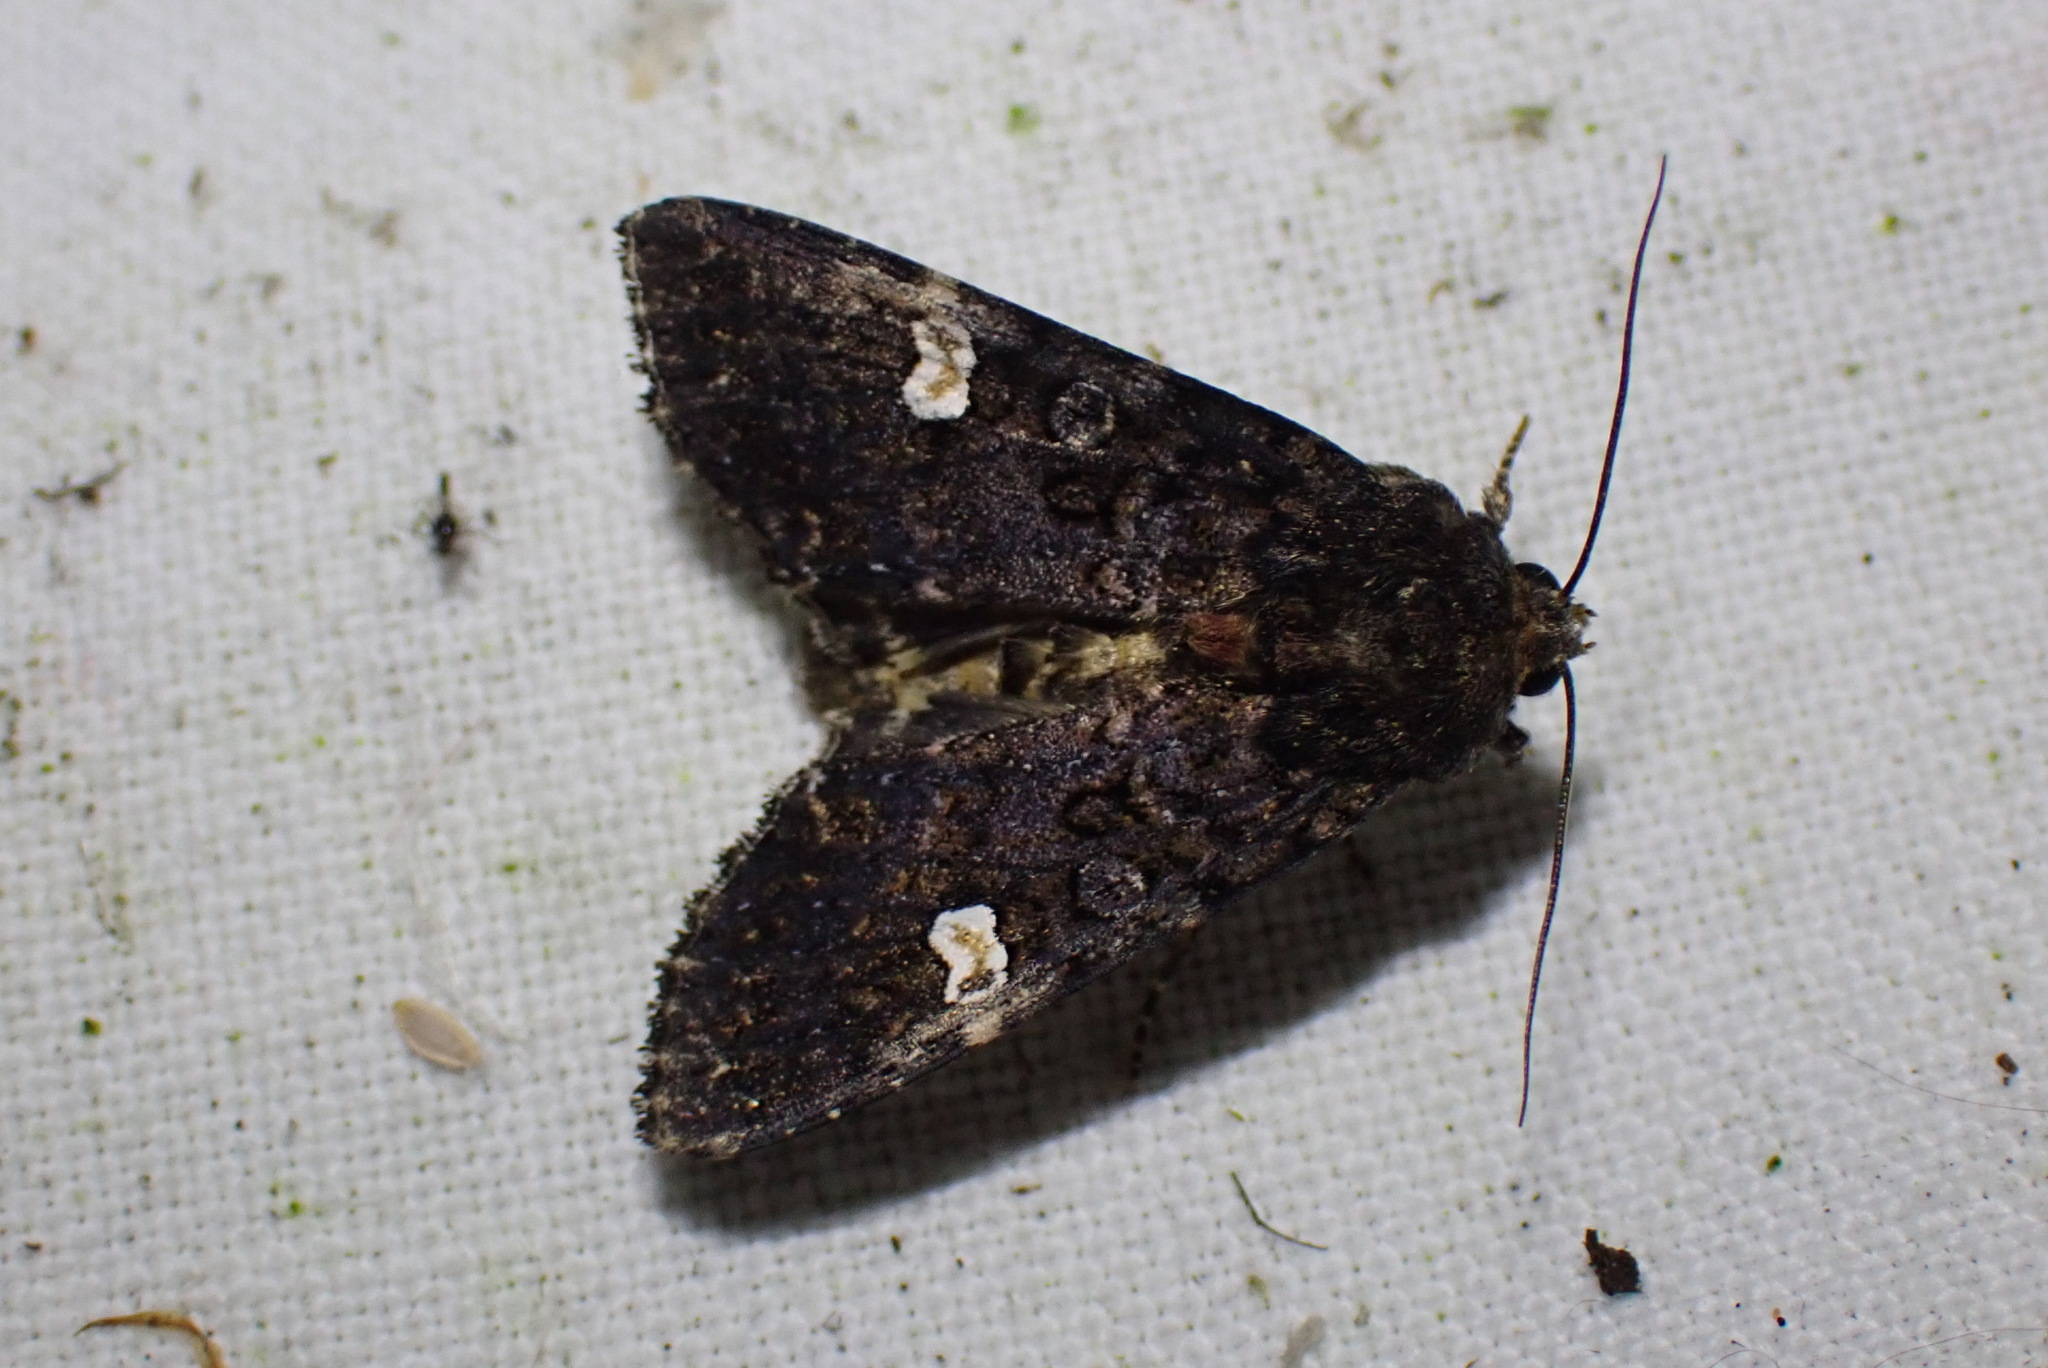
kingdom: Animalia
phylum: Arthropoda
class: Insecta
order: Lepidoptera
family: Noctuidae
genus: Melanchra
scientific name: Melanchra persicariae
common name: Dot moth
